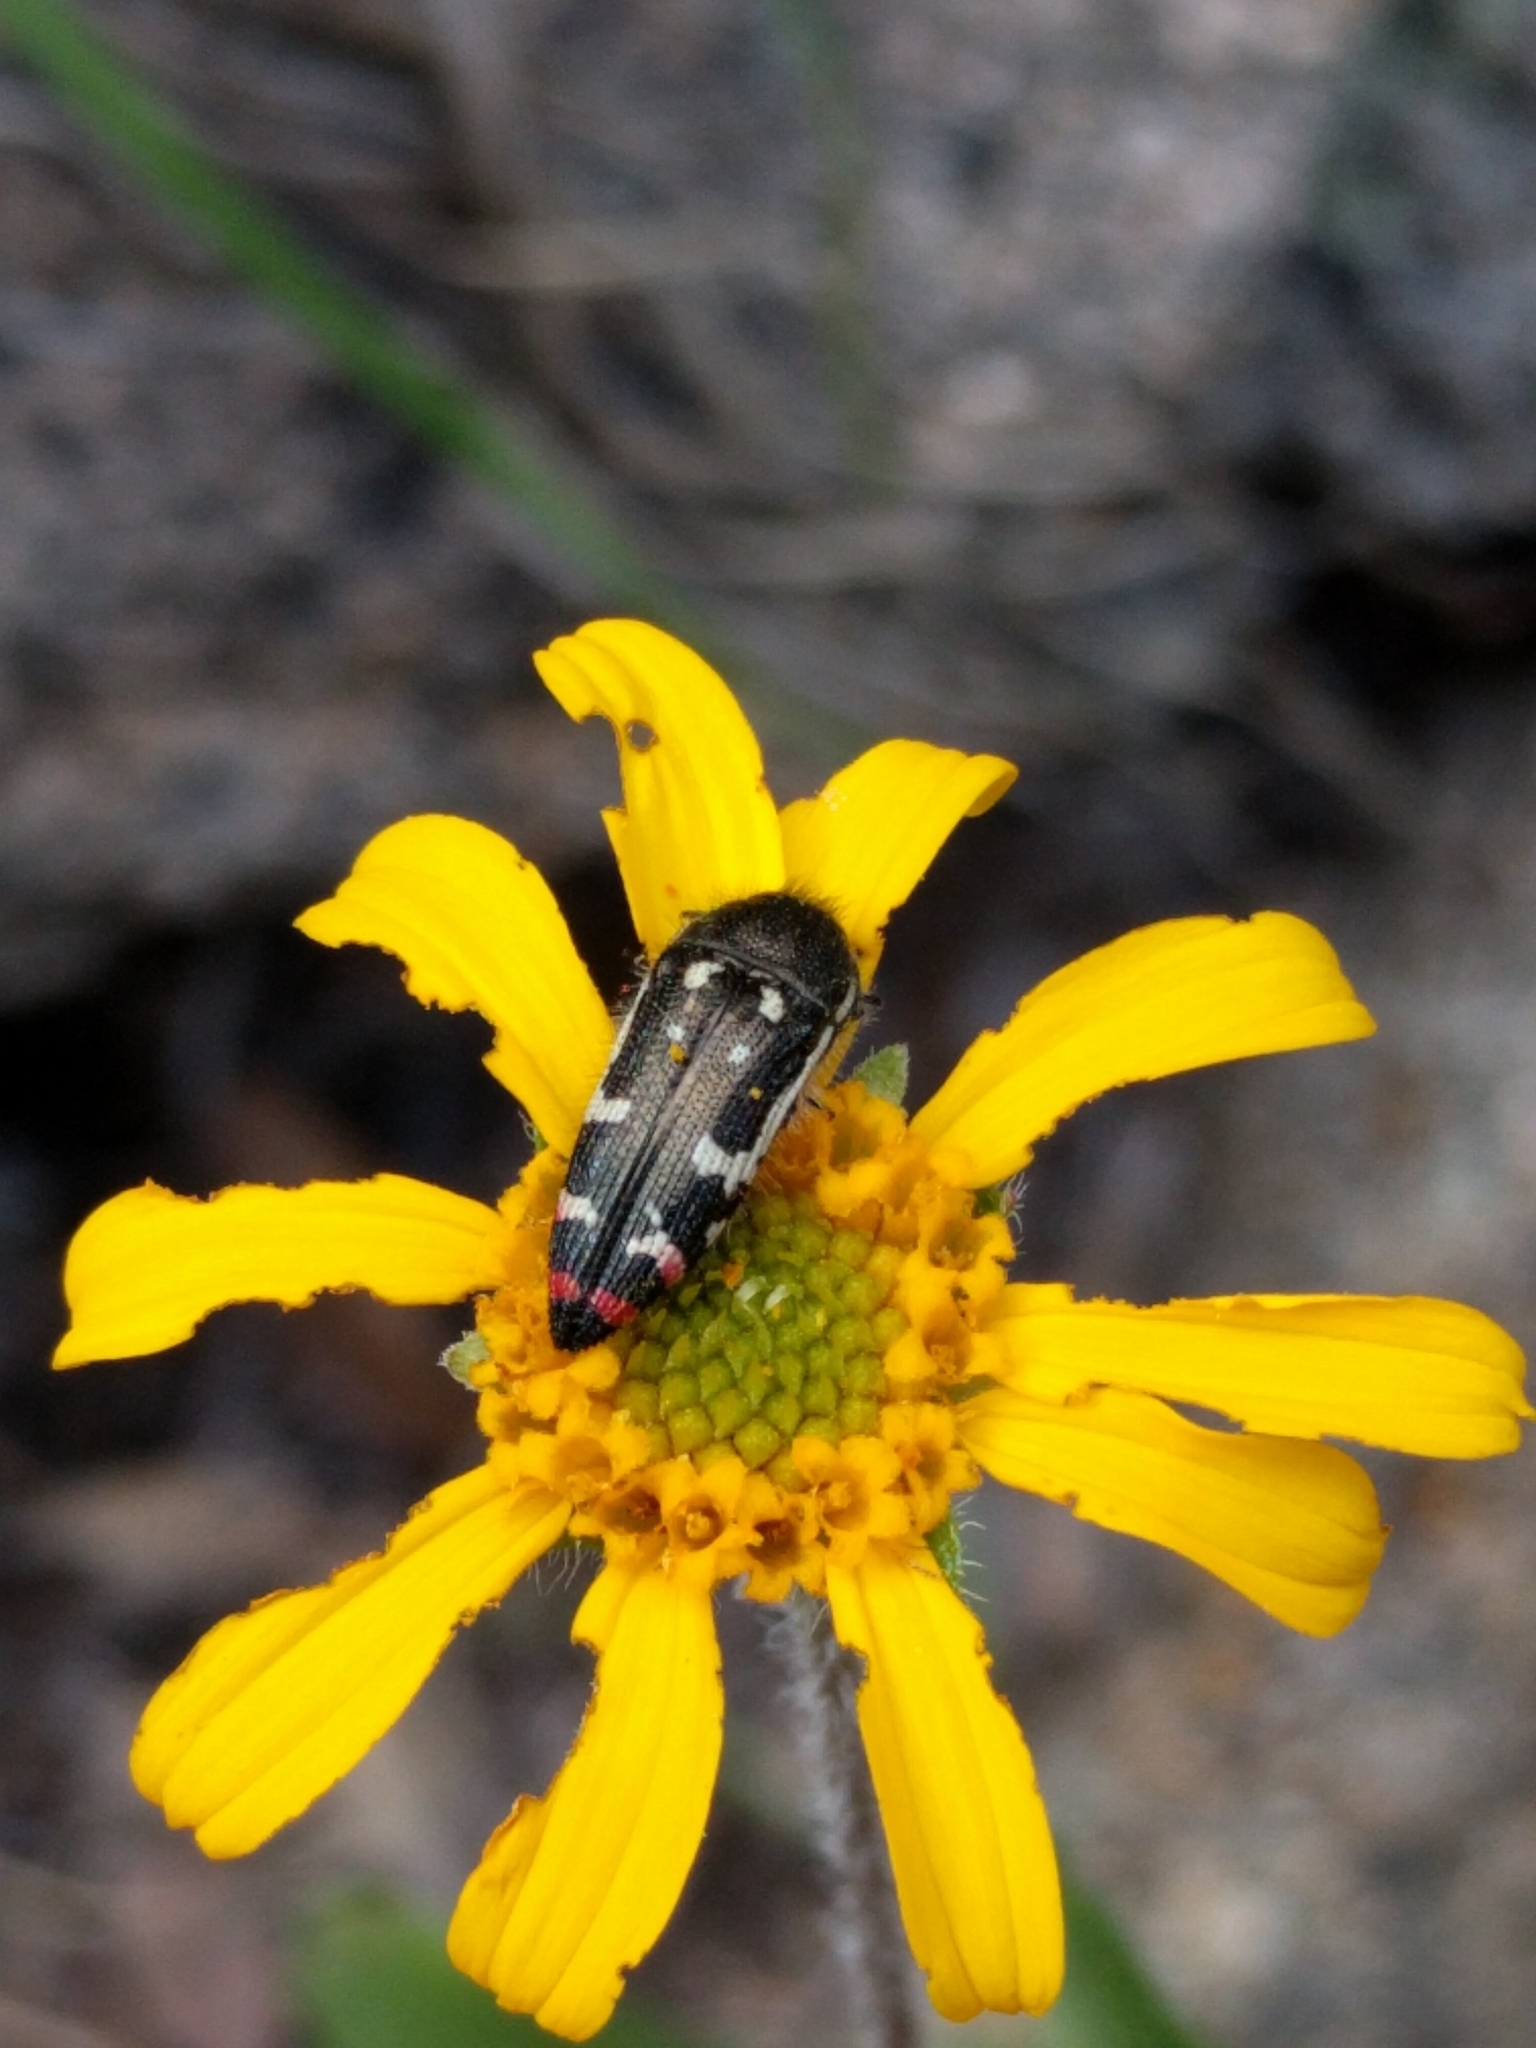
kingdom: Animalia
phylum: Arthropoda
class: Insecta
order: Coleoptera
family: Buprestidae
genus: Acmaeodera
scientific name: Acmaeodera amabilis
